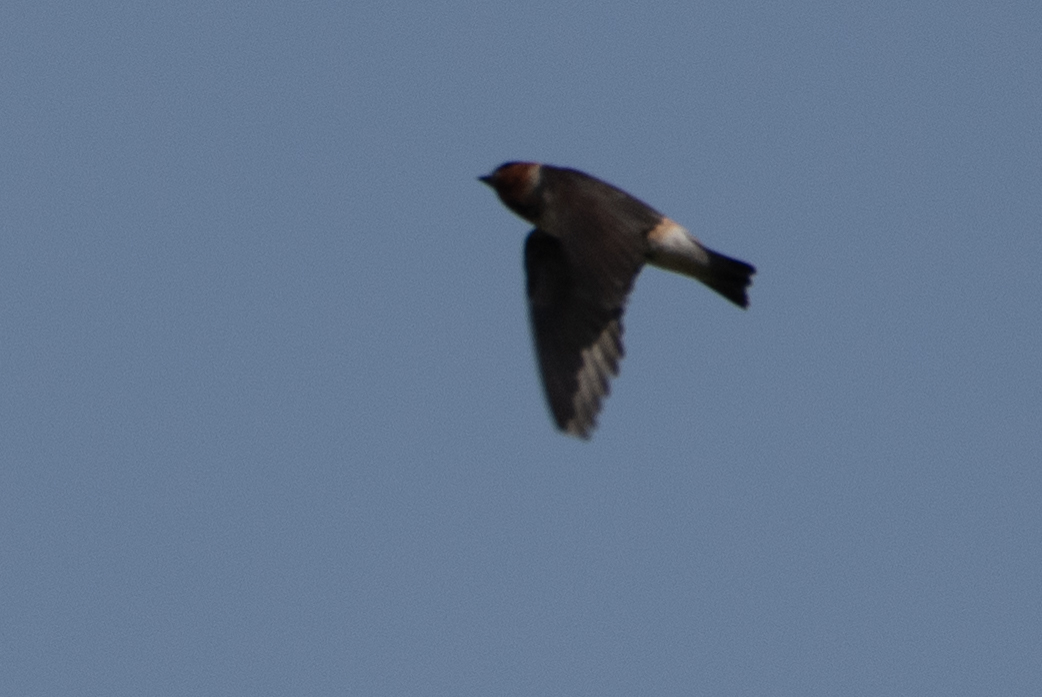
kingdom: Animalia
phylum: Chordata
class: Aves
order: Passeriformes
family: Hirundinidae
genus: Petrochelidon
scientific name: Petrochelidon pyrrhonota
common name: American cliff swallow
